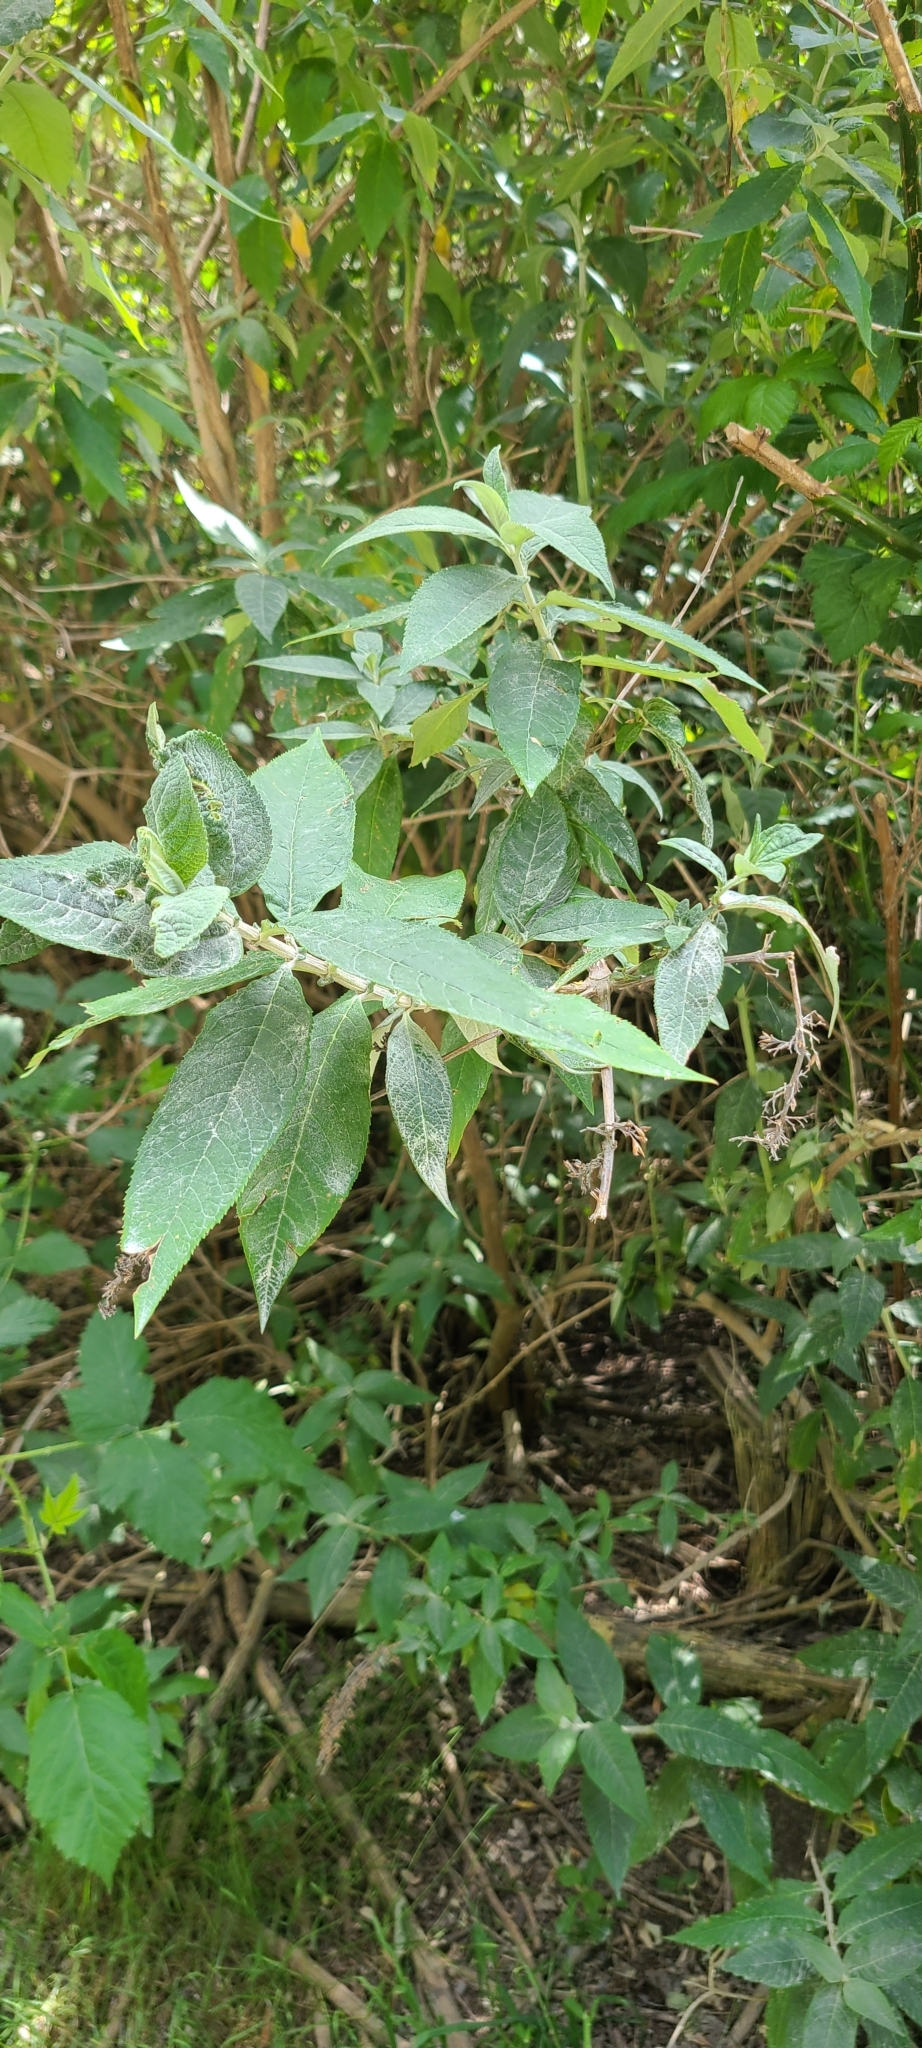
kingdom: Plantae
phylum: Tracheophyta
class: Magnoliopsida
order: Lamiales
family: Scrophulariaceae
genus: Buddleja
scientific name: Buddleja davidii
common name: Butterfly-bush
